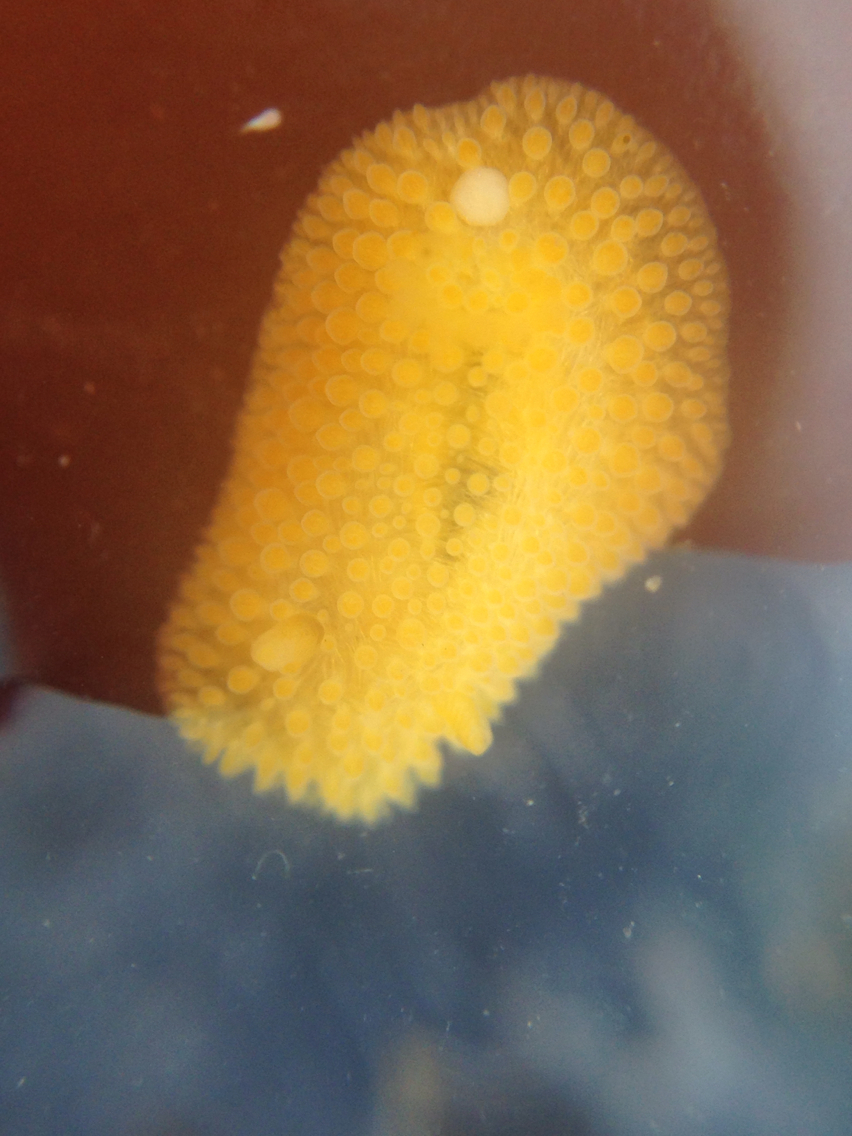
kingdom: Animalia
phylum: Mollusca
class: Gastropoda
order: Nudibranchia
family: Onchidorididae
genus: Atalodoris
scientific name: Atalodoris jannae
